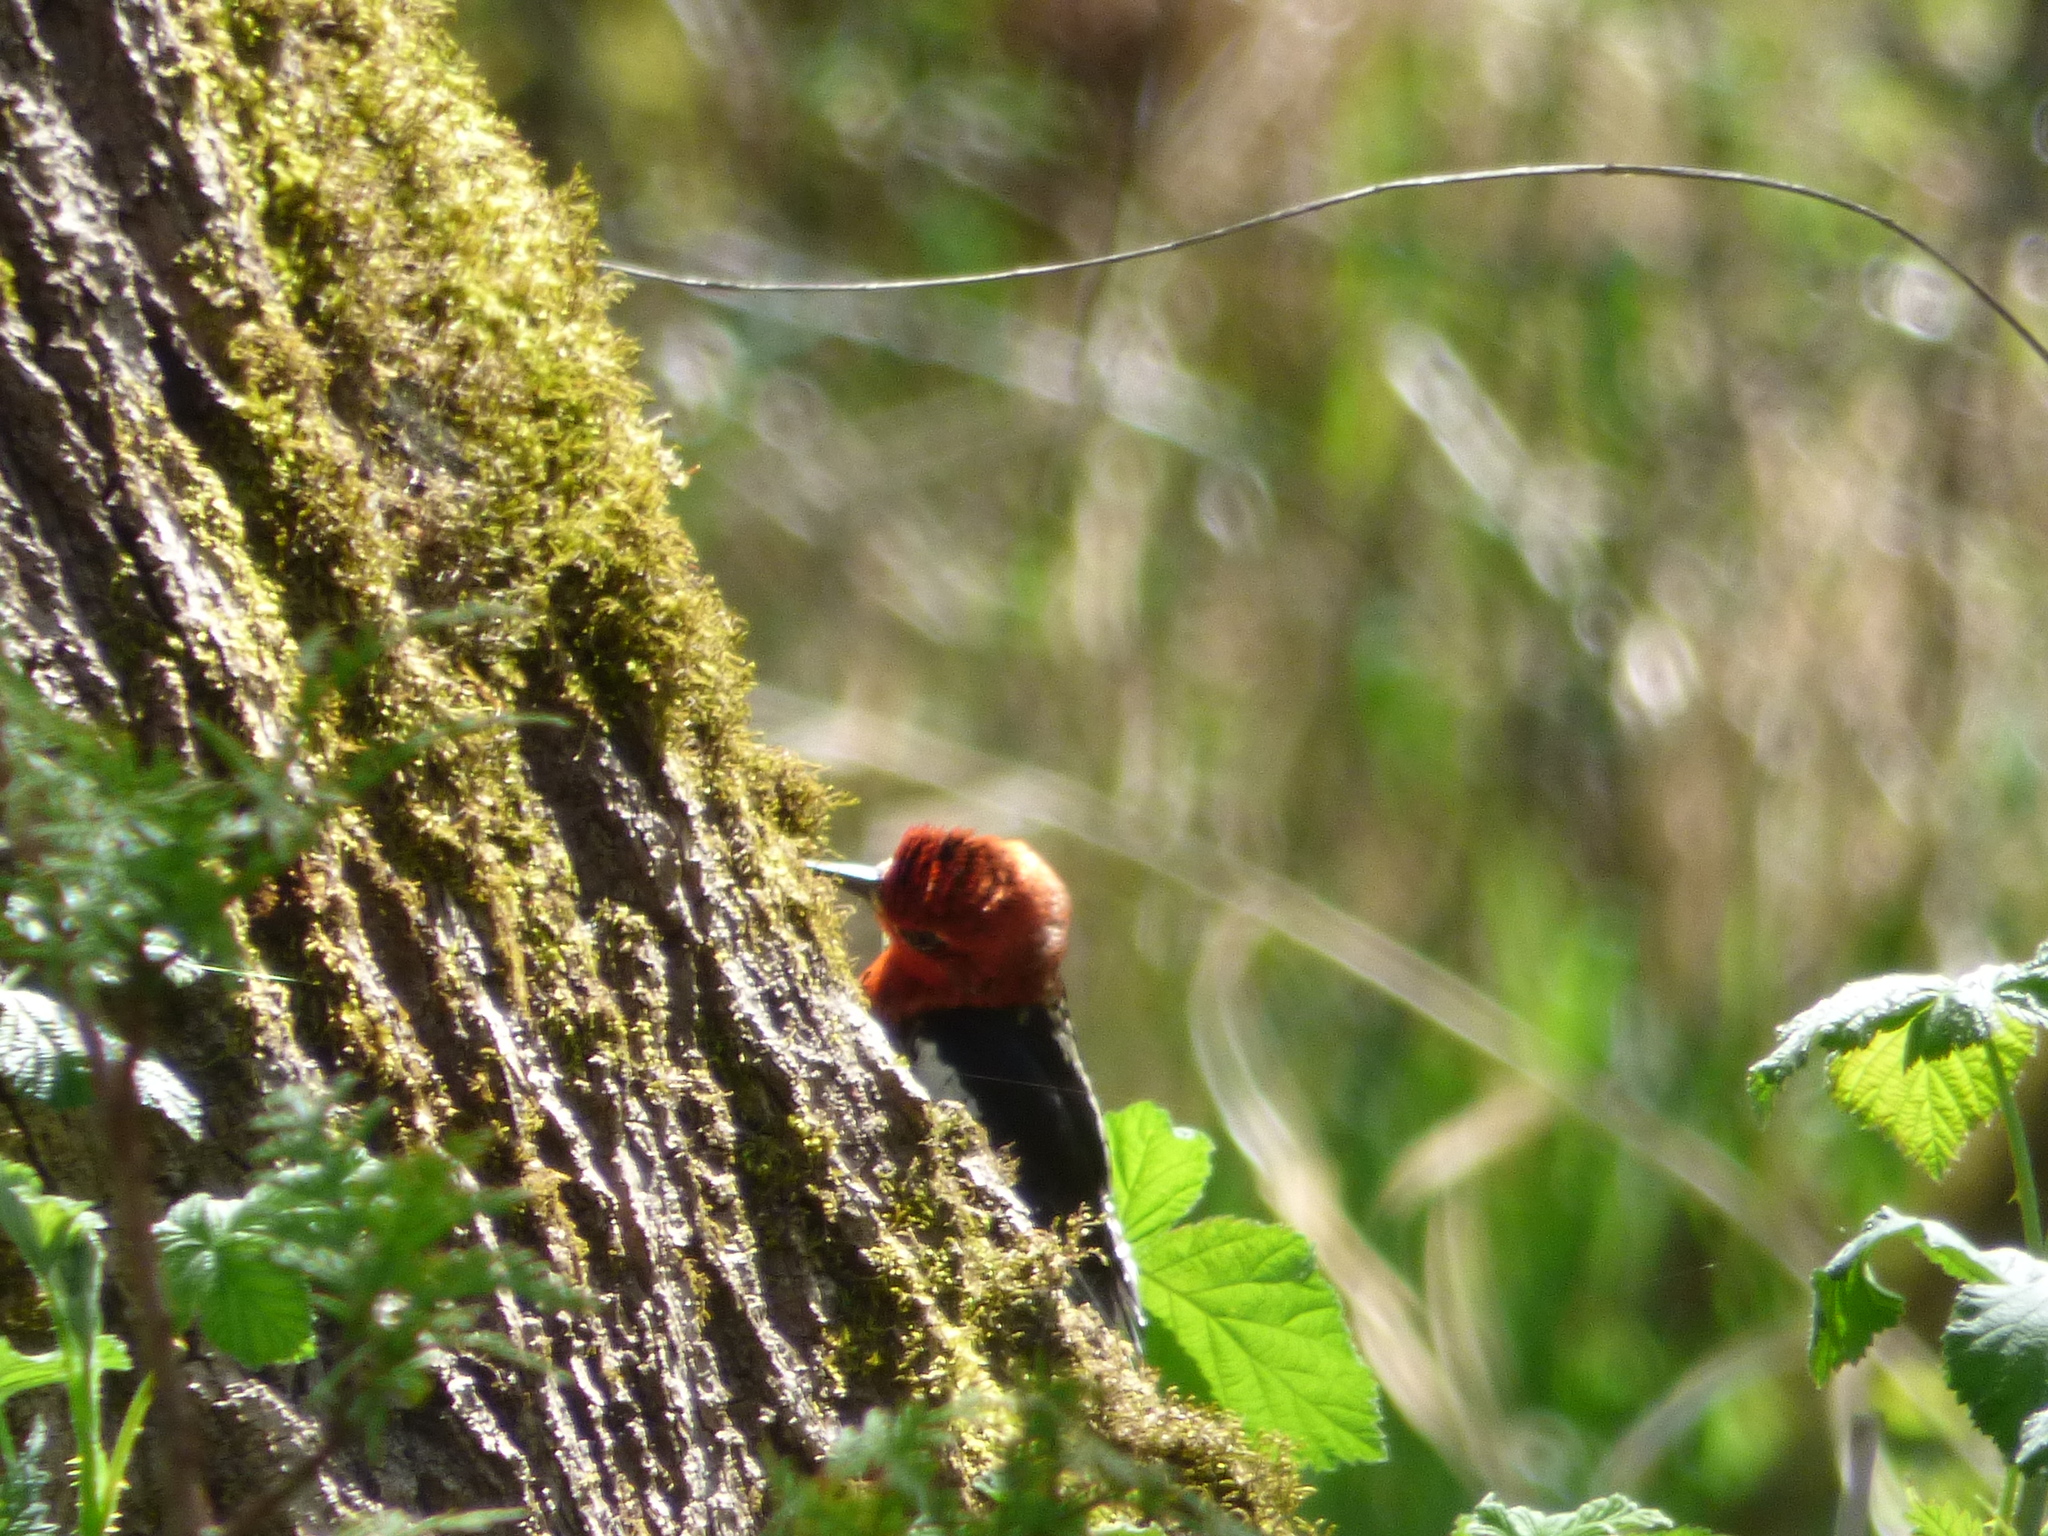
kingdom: Animalia
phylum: Chordata
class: Aves
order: Piciformes
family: Picidae
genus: Sphyrapicus
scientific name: Sphyrapicus ruber
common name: Red-breasted sapsucker
